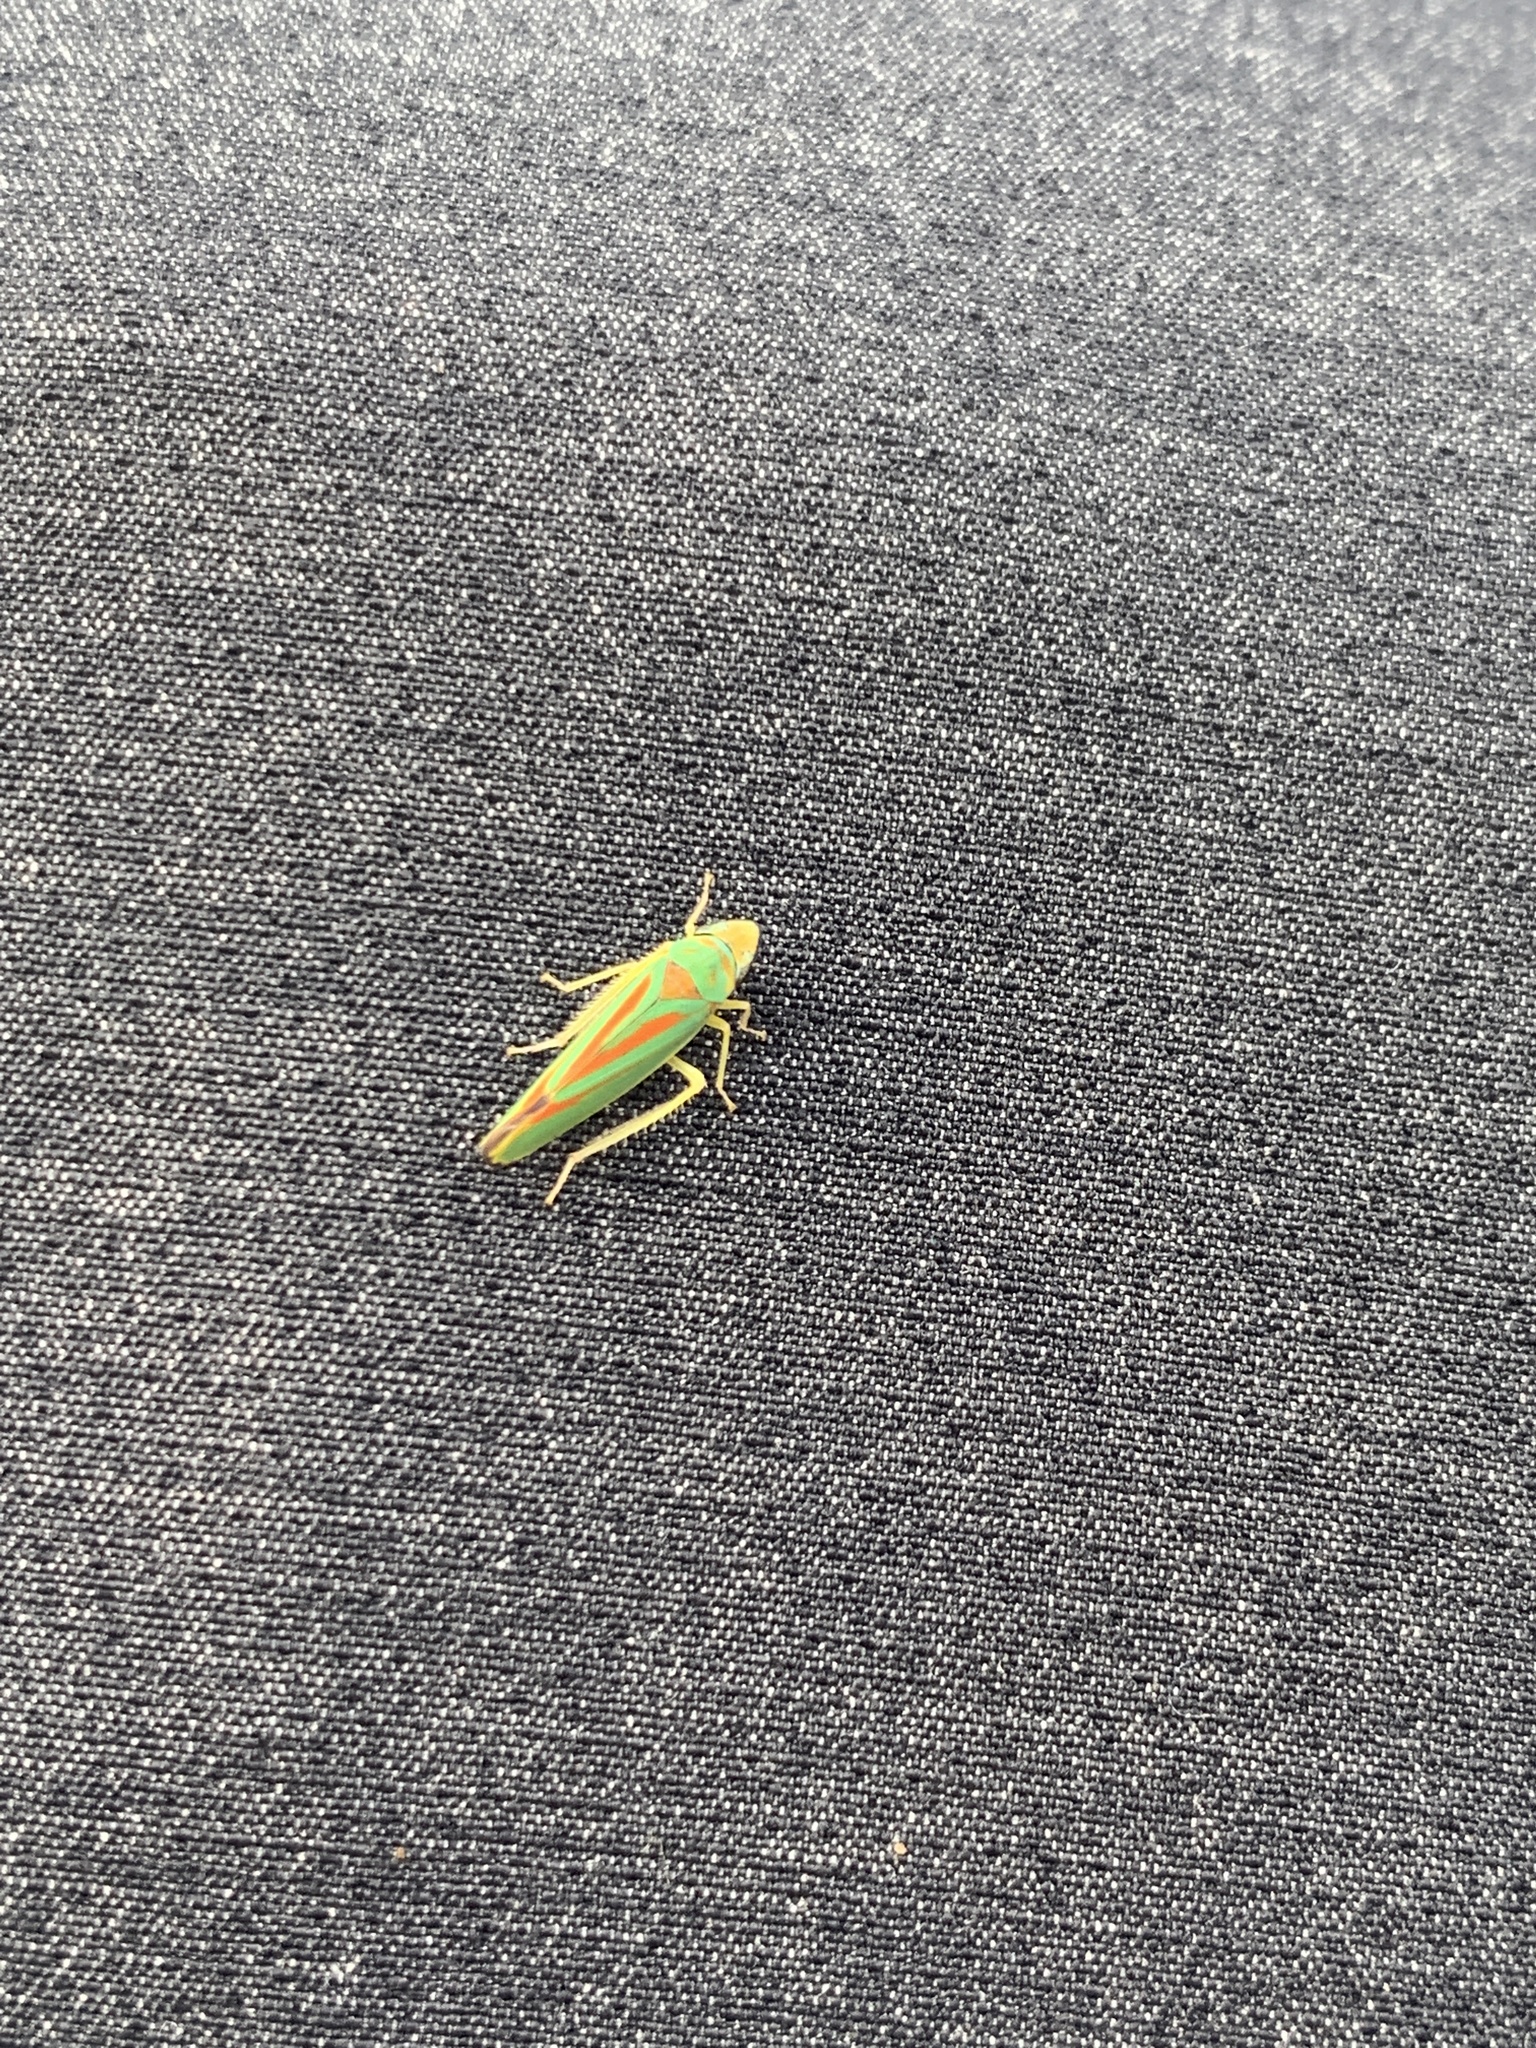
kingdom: Animalia
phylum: Arthropoda
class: Insecta
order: Hemiptera
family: Cicadellidae
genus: Graphocephala
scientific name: Graphocephala fennahi
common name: Rhododendron leafhopper
